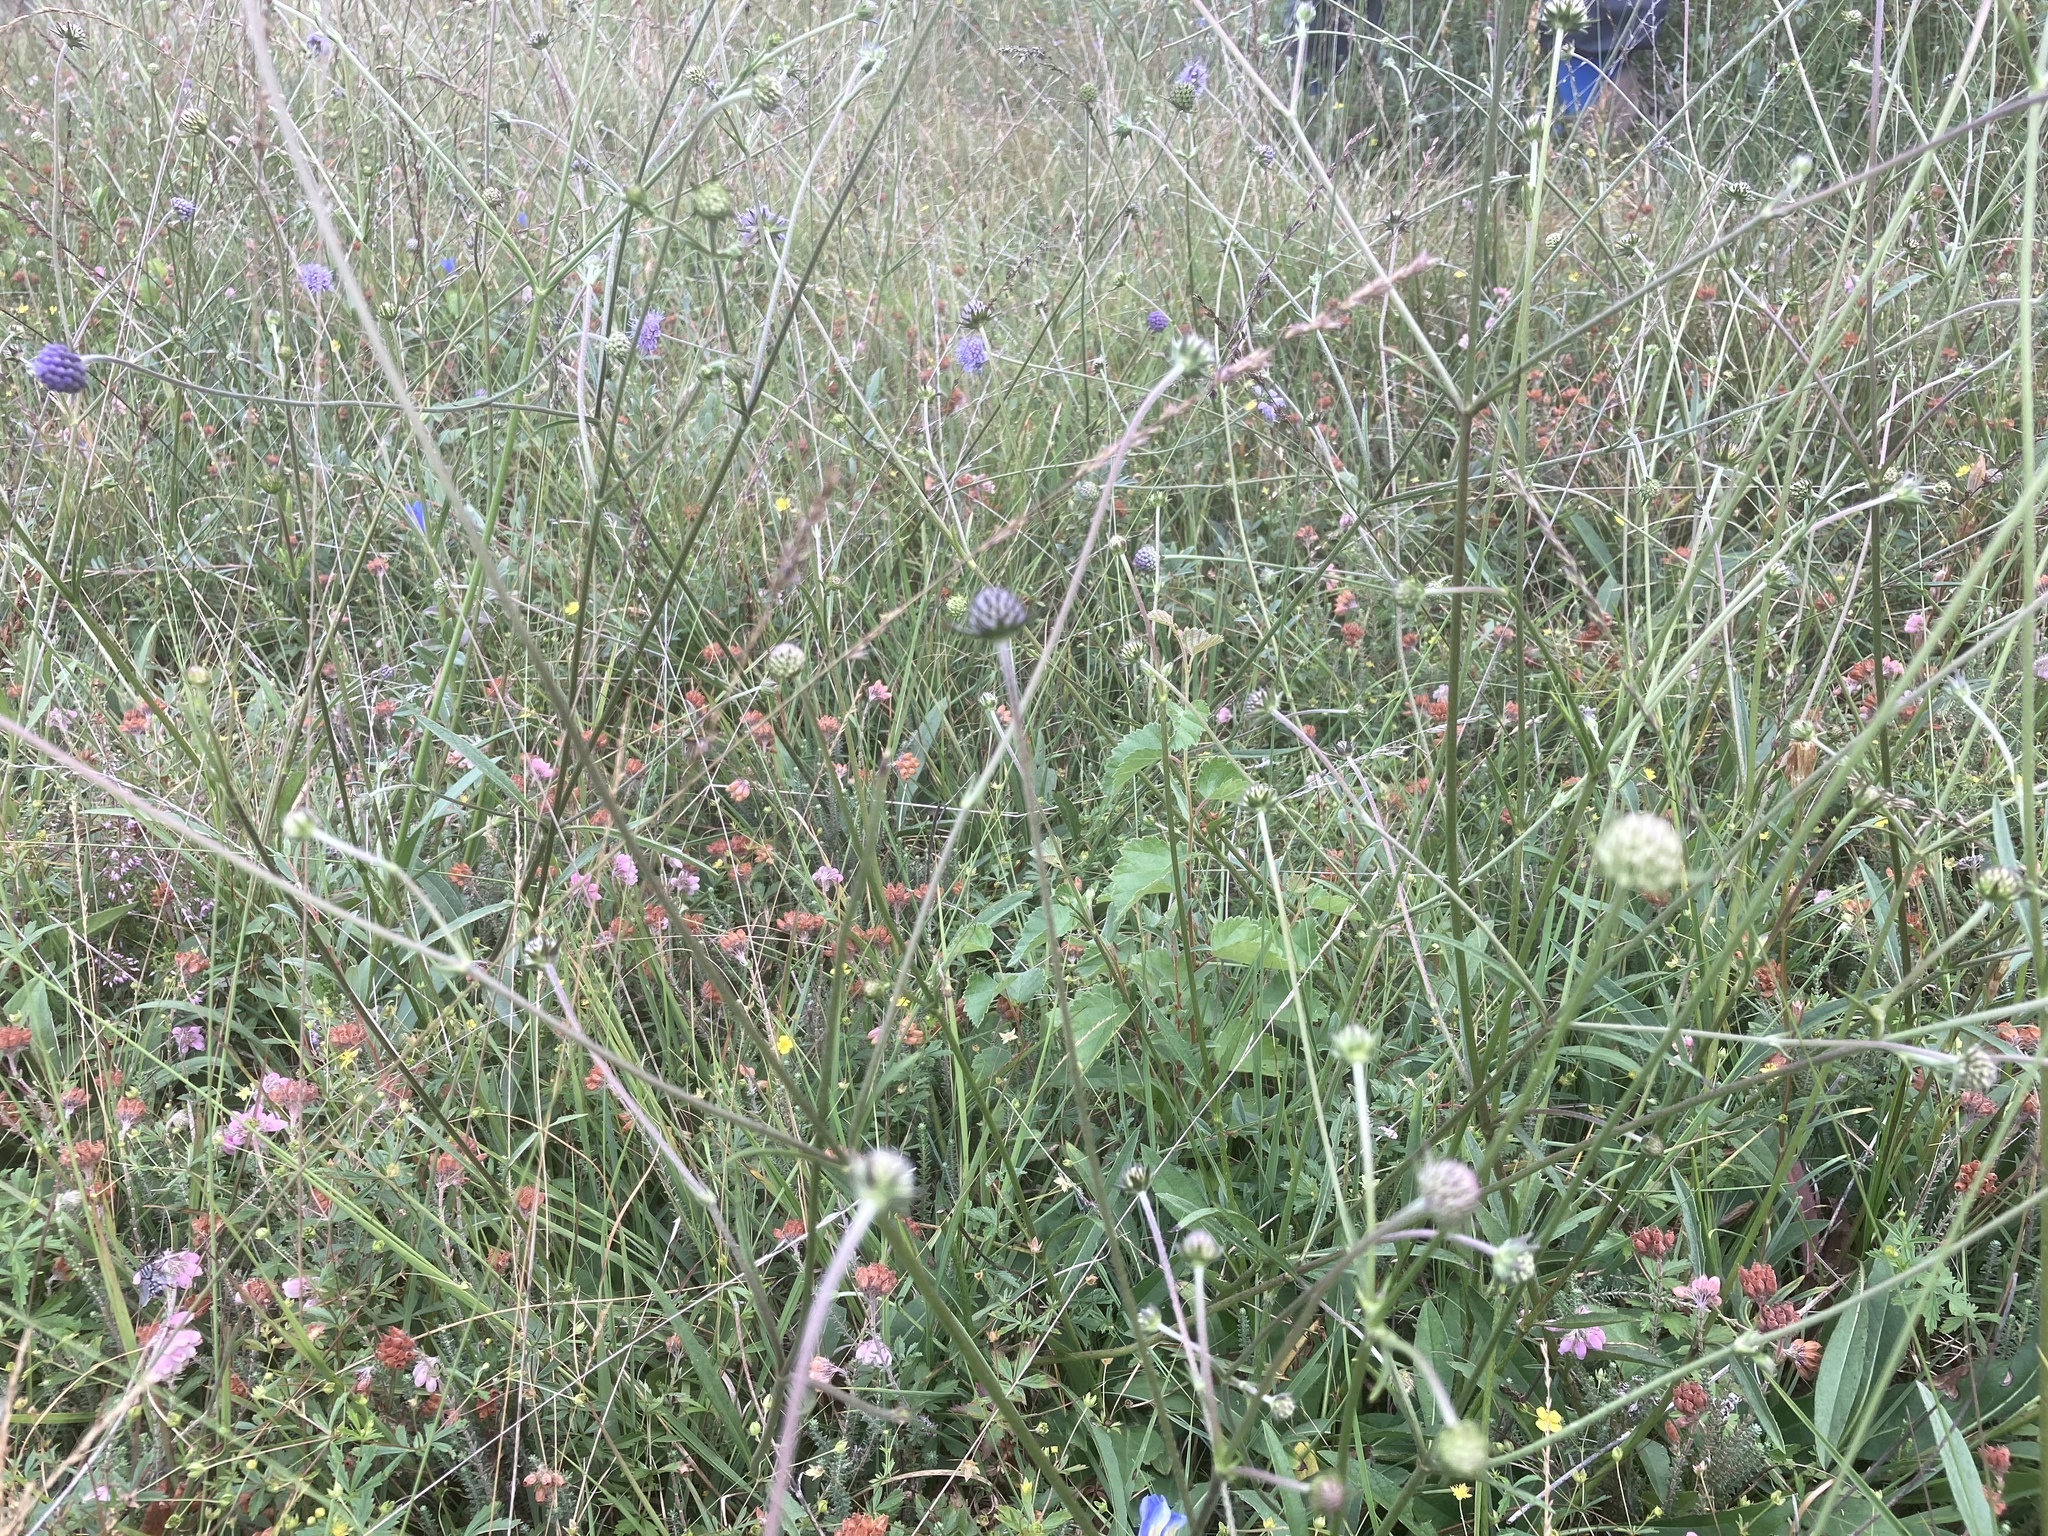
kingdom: Plantae
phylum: Tracheophyta
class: Magnoliopsida
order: Dipsacales
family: Caprifoliaceae
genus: Succisa
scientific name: Succisa pratensis
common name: Devil's-bit
